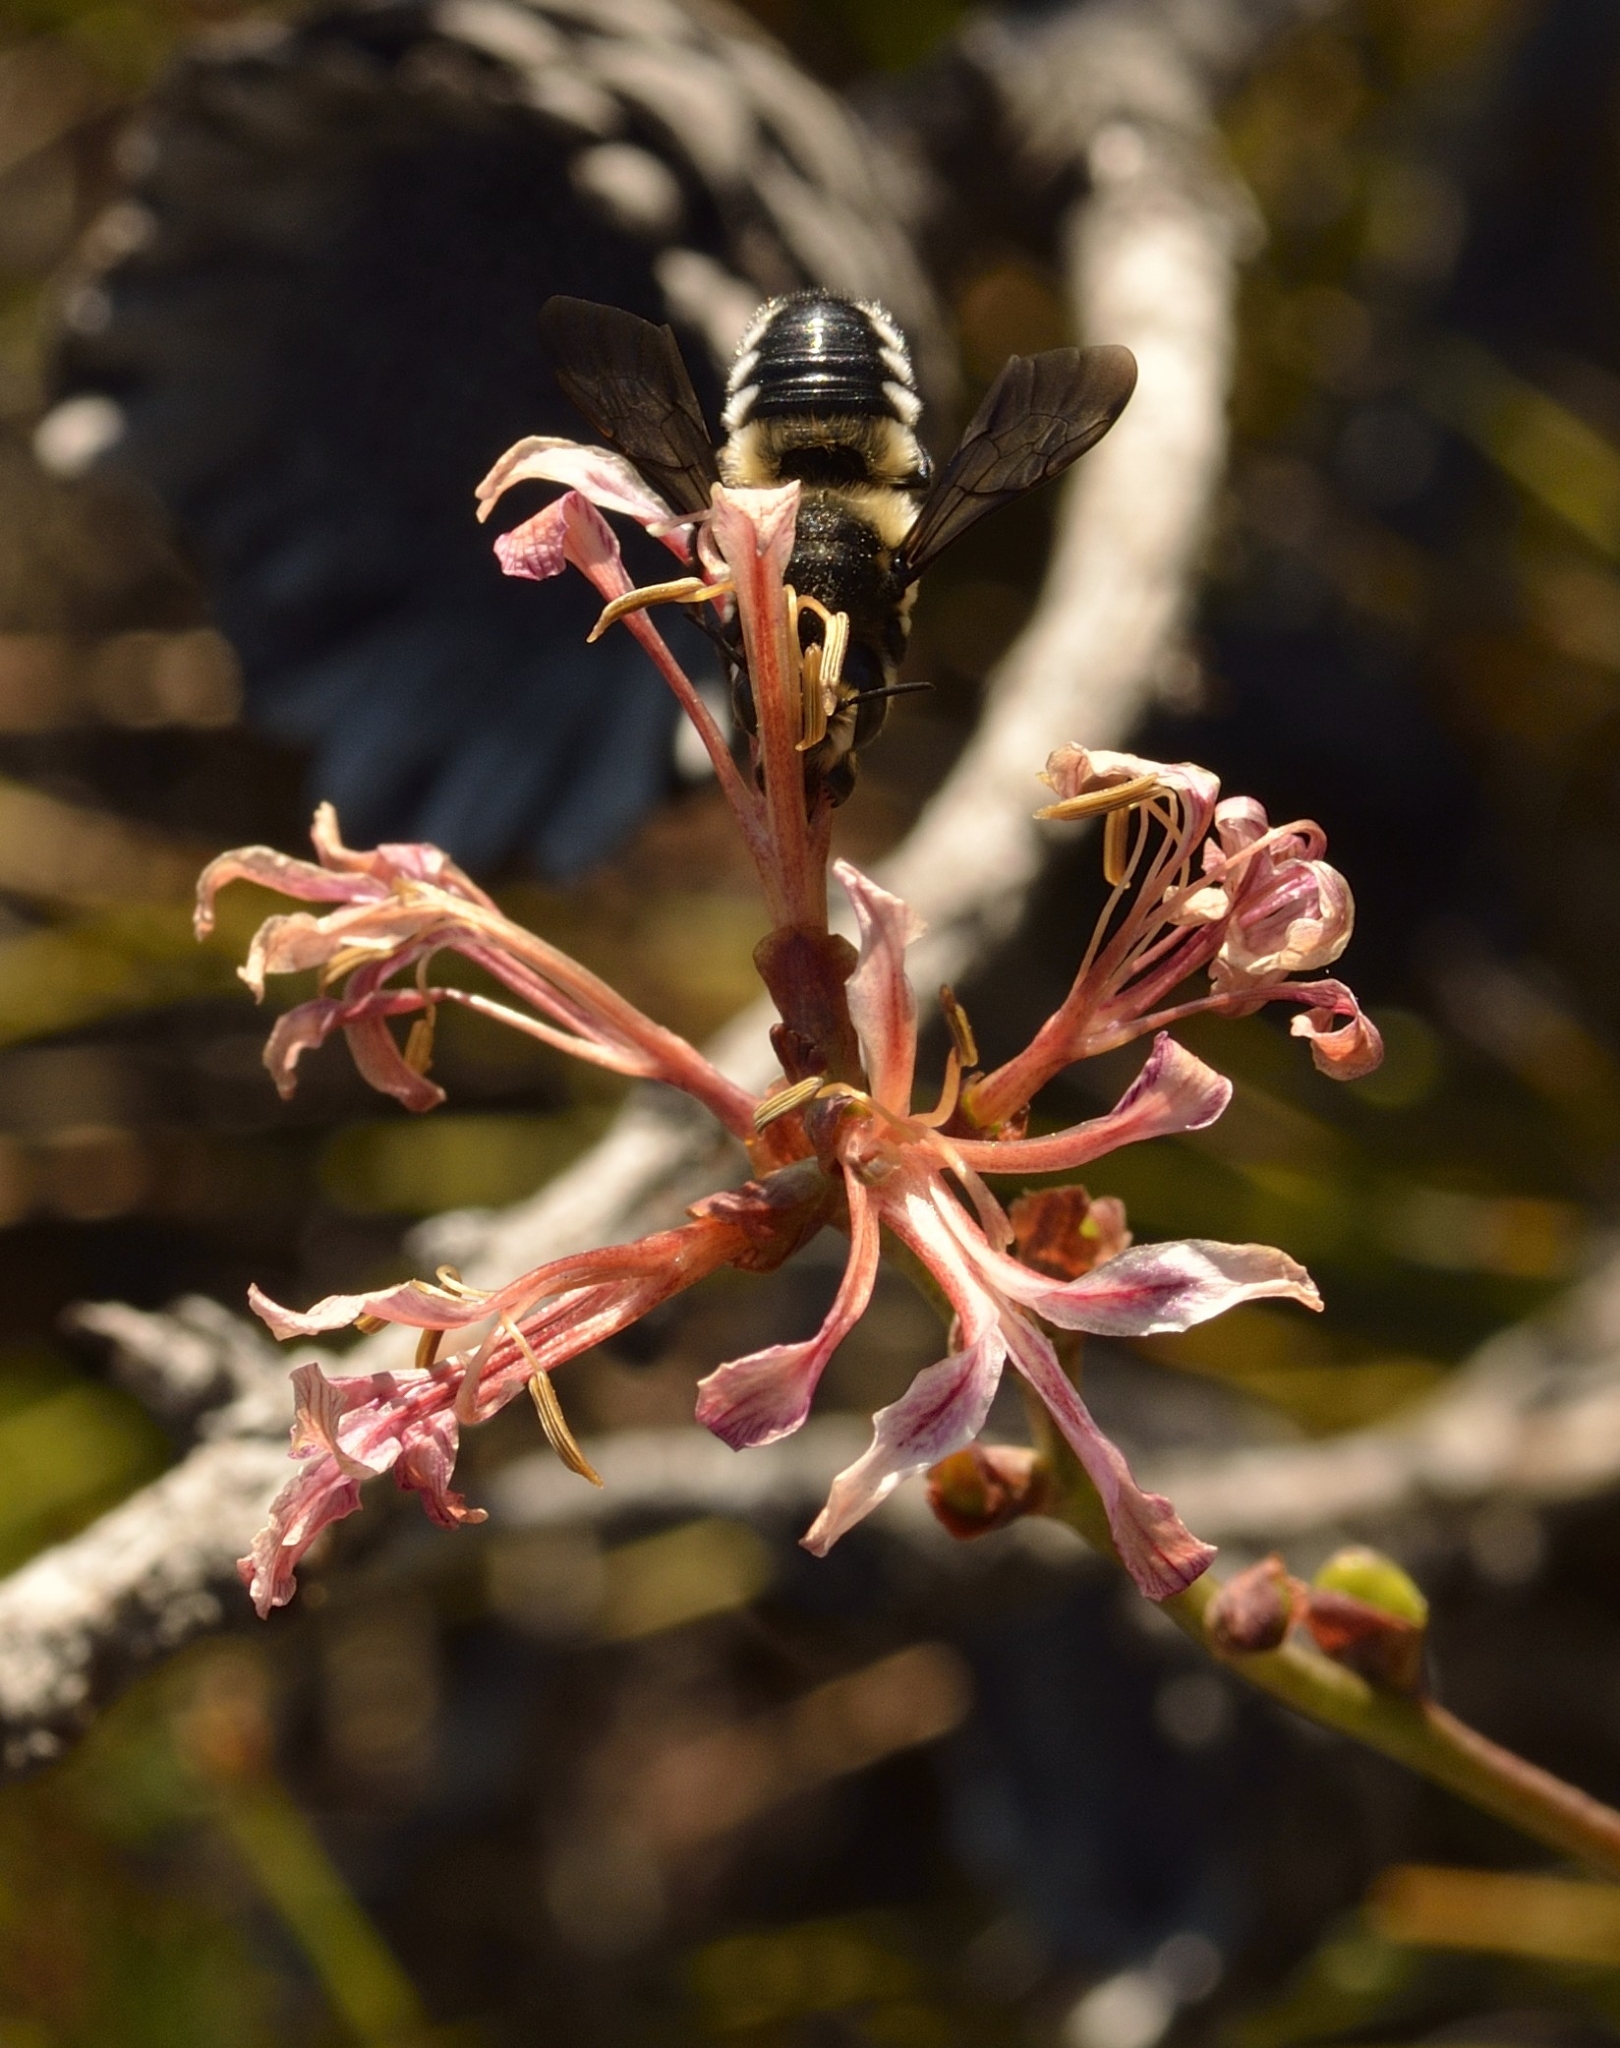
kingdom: Plantae
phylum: Tracheophyta
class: Liliopsida
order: Asparagales
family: Iridaceae
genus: Tritoniopsis
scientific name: Tritoniopsis dodii
